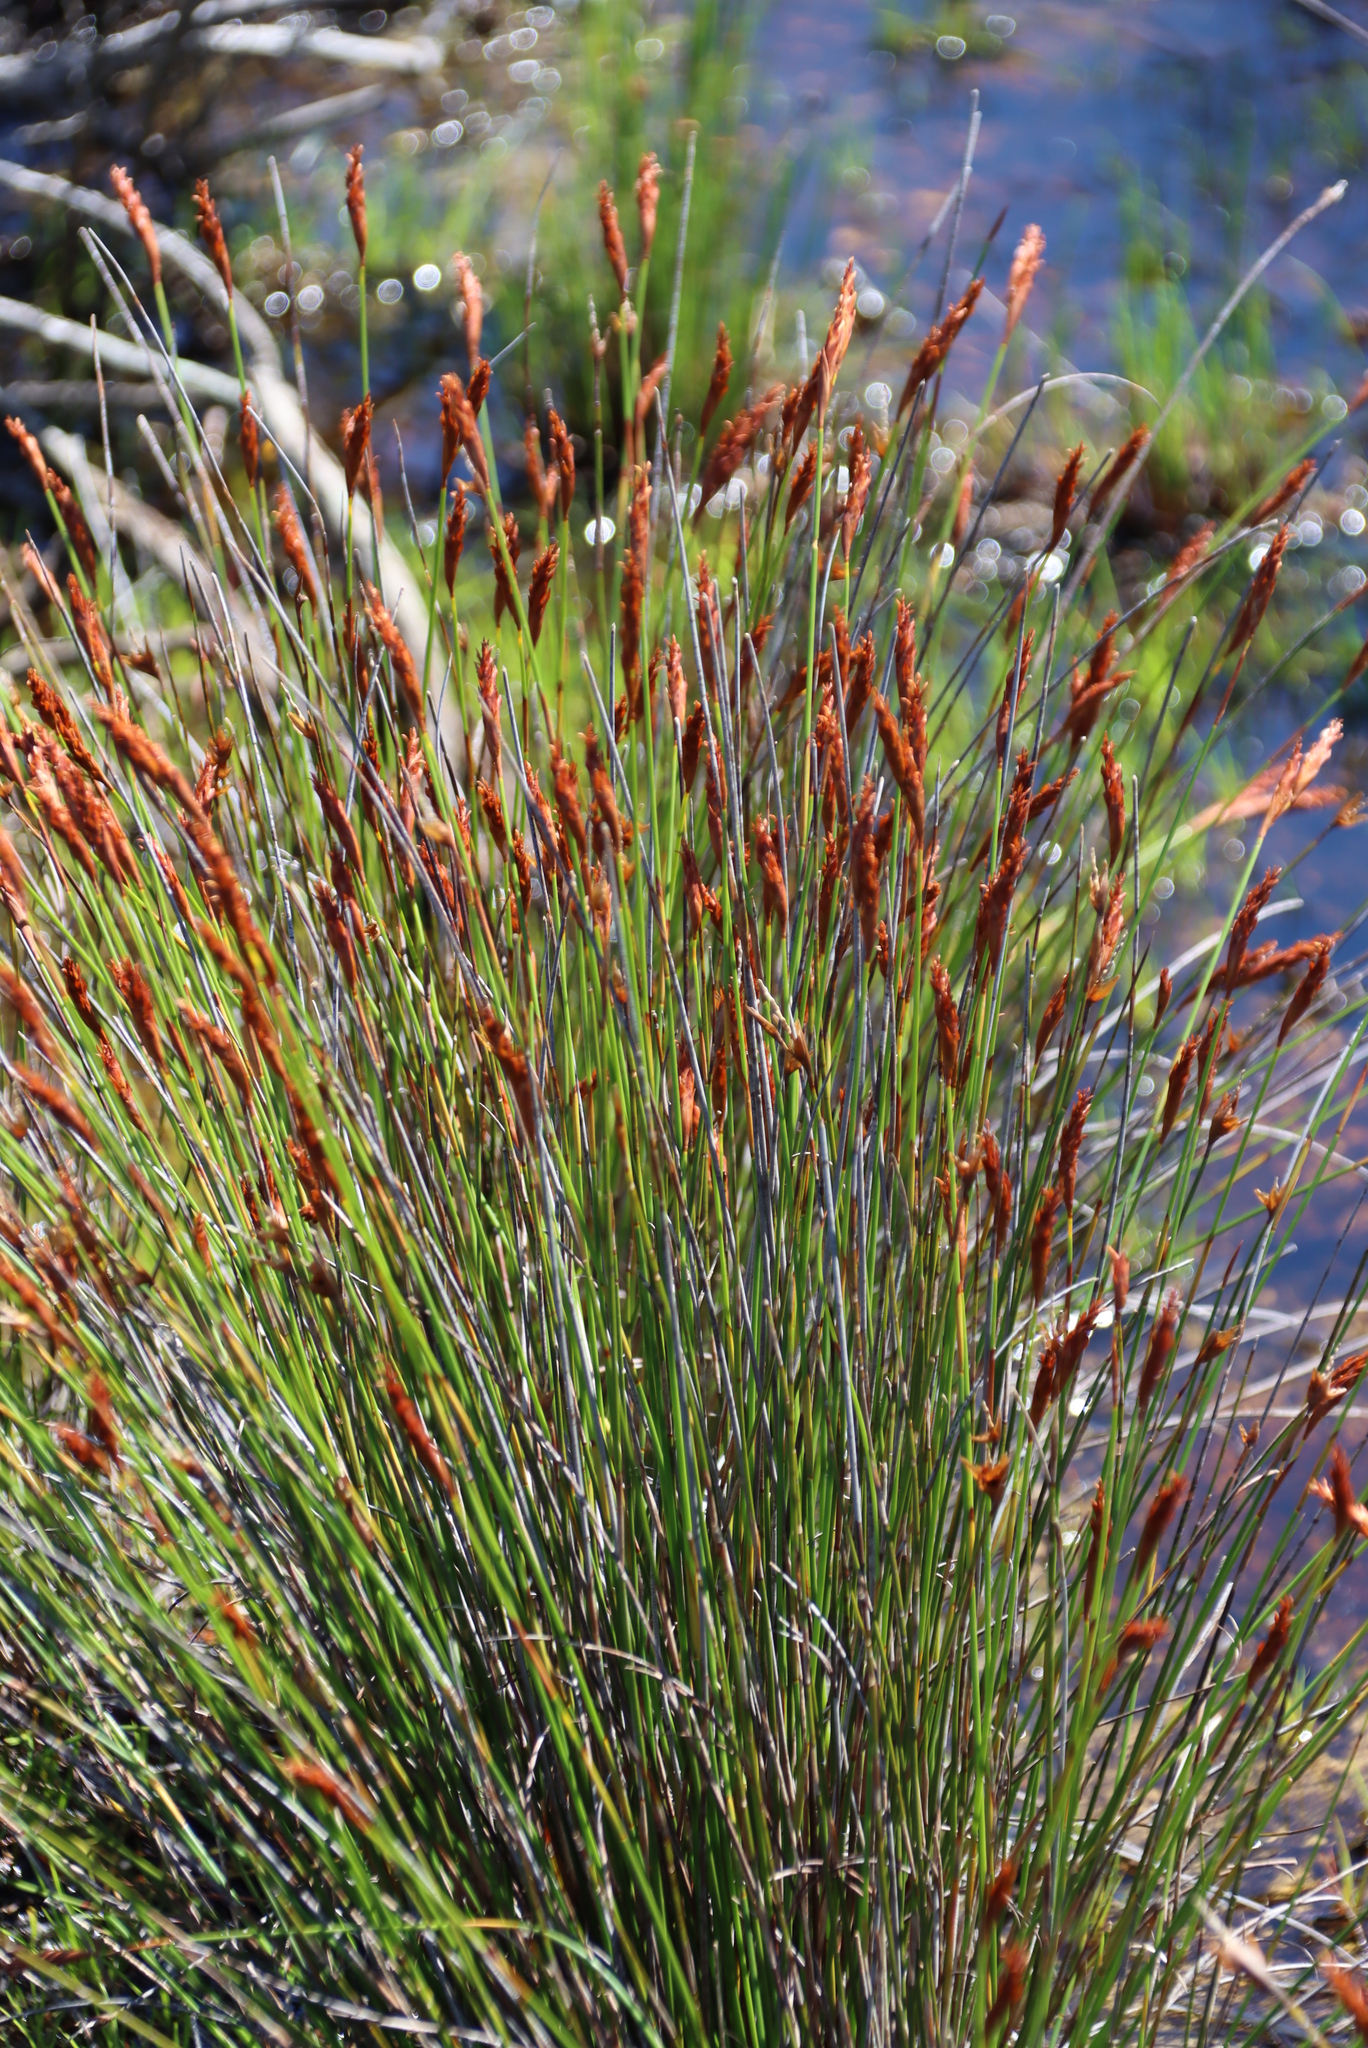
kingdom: Plantae
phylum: Tracheophyta
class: Liliopsida
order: Poales
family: Restionaceae
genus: Staberoha
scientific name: Staberoha banksii
